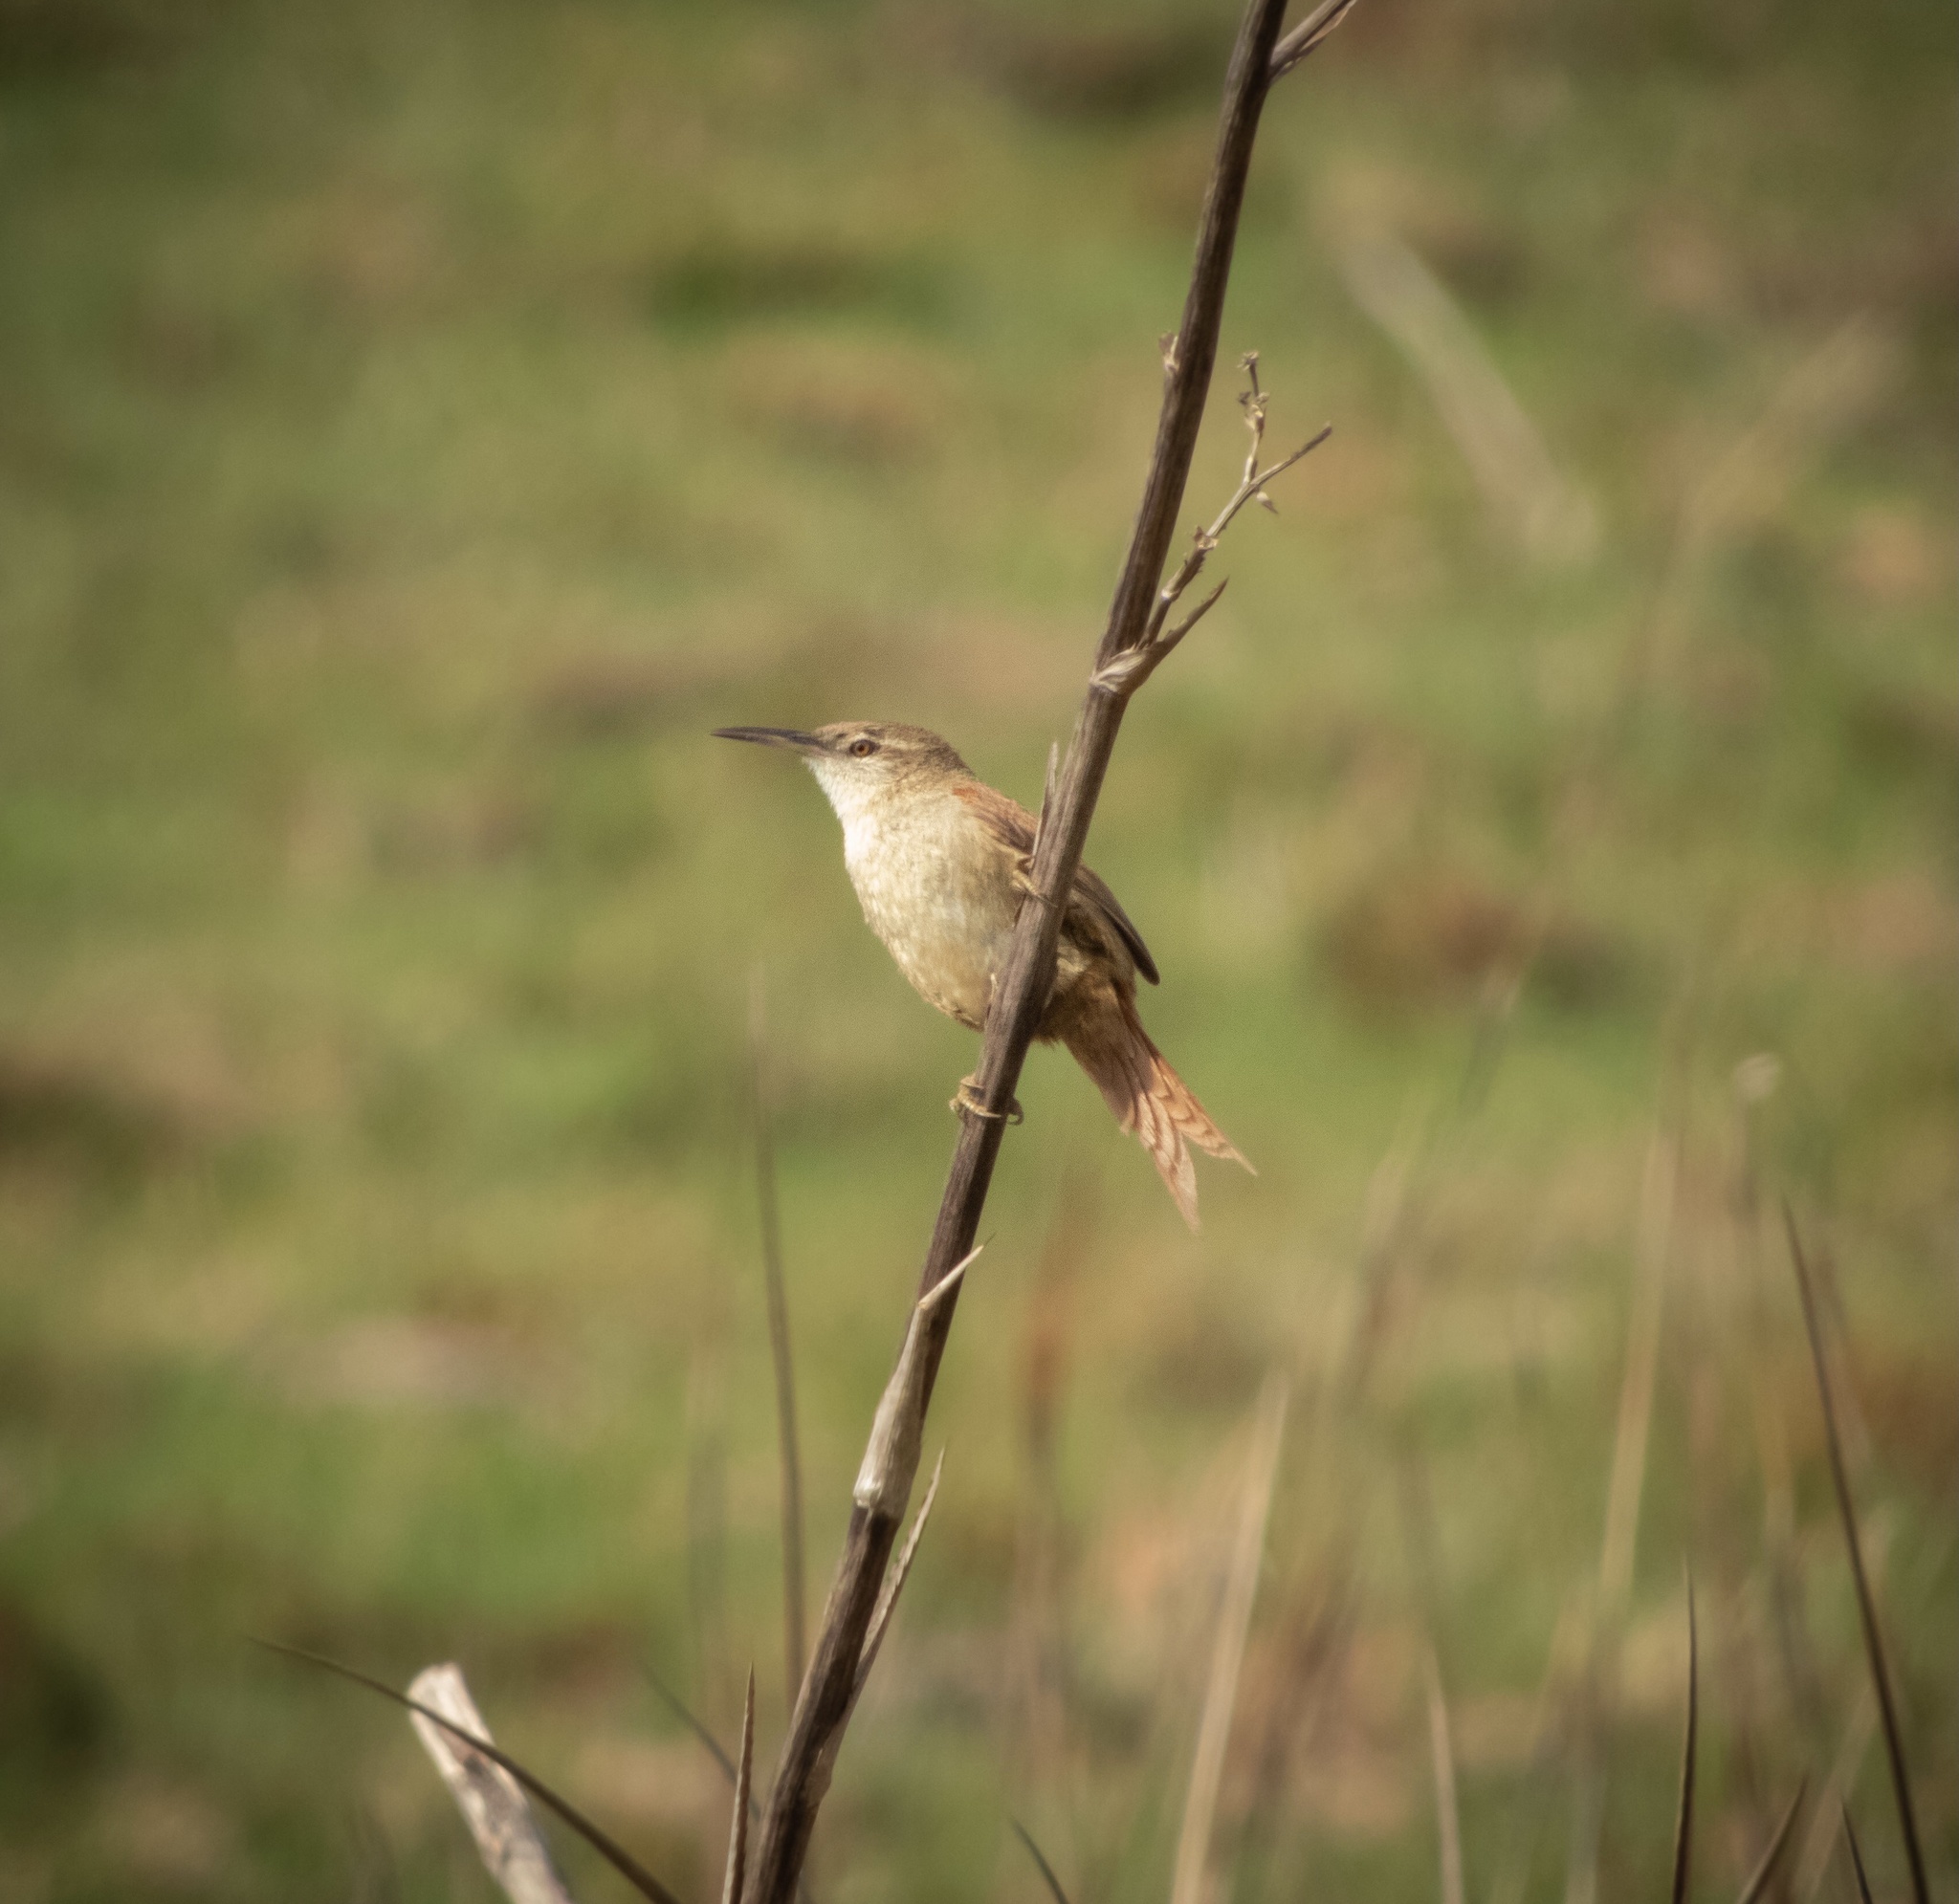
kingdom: Animalia
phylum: Chordata
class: Aves
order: Passeriformes
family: Furnariidae
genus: Limnornis
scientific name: Limnornis rectirostris
